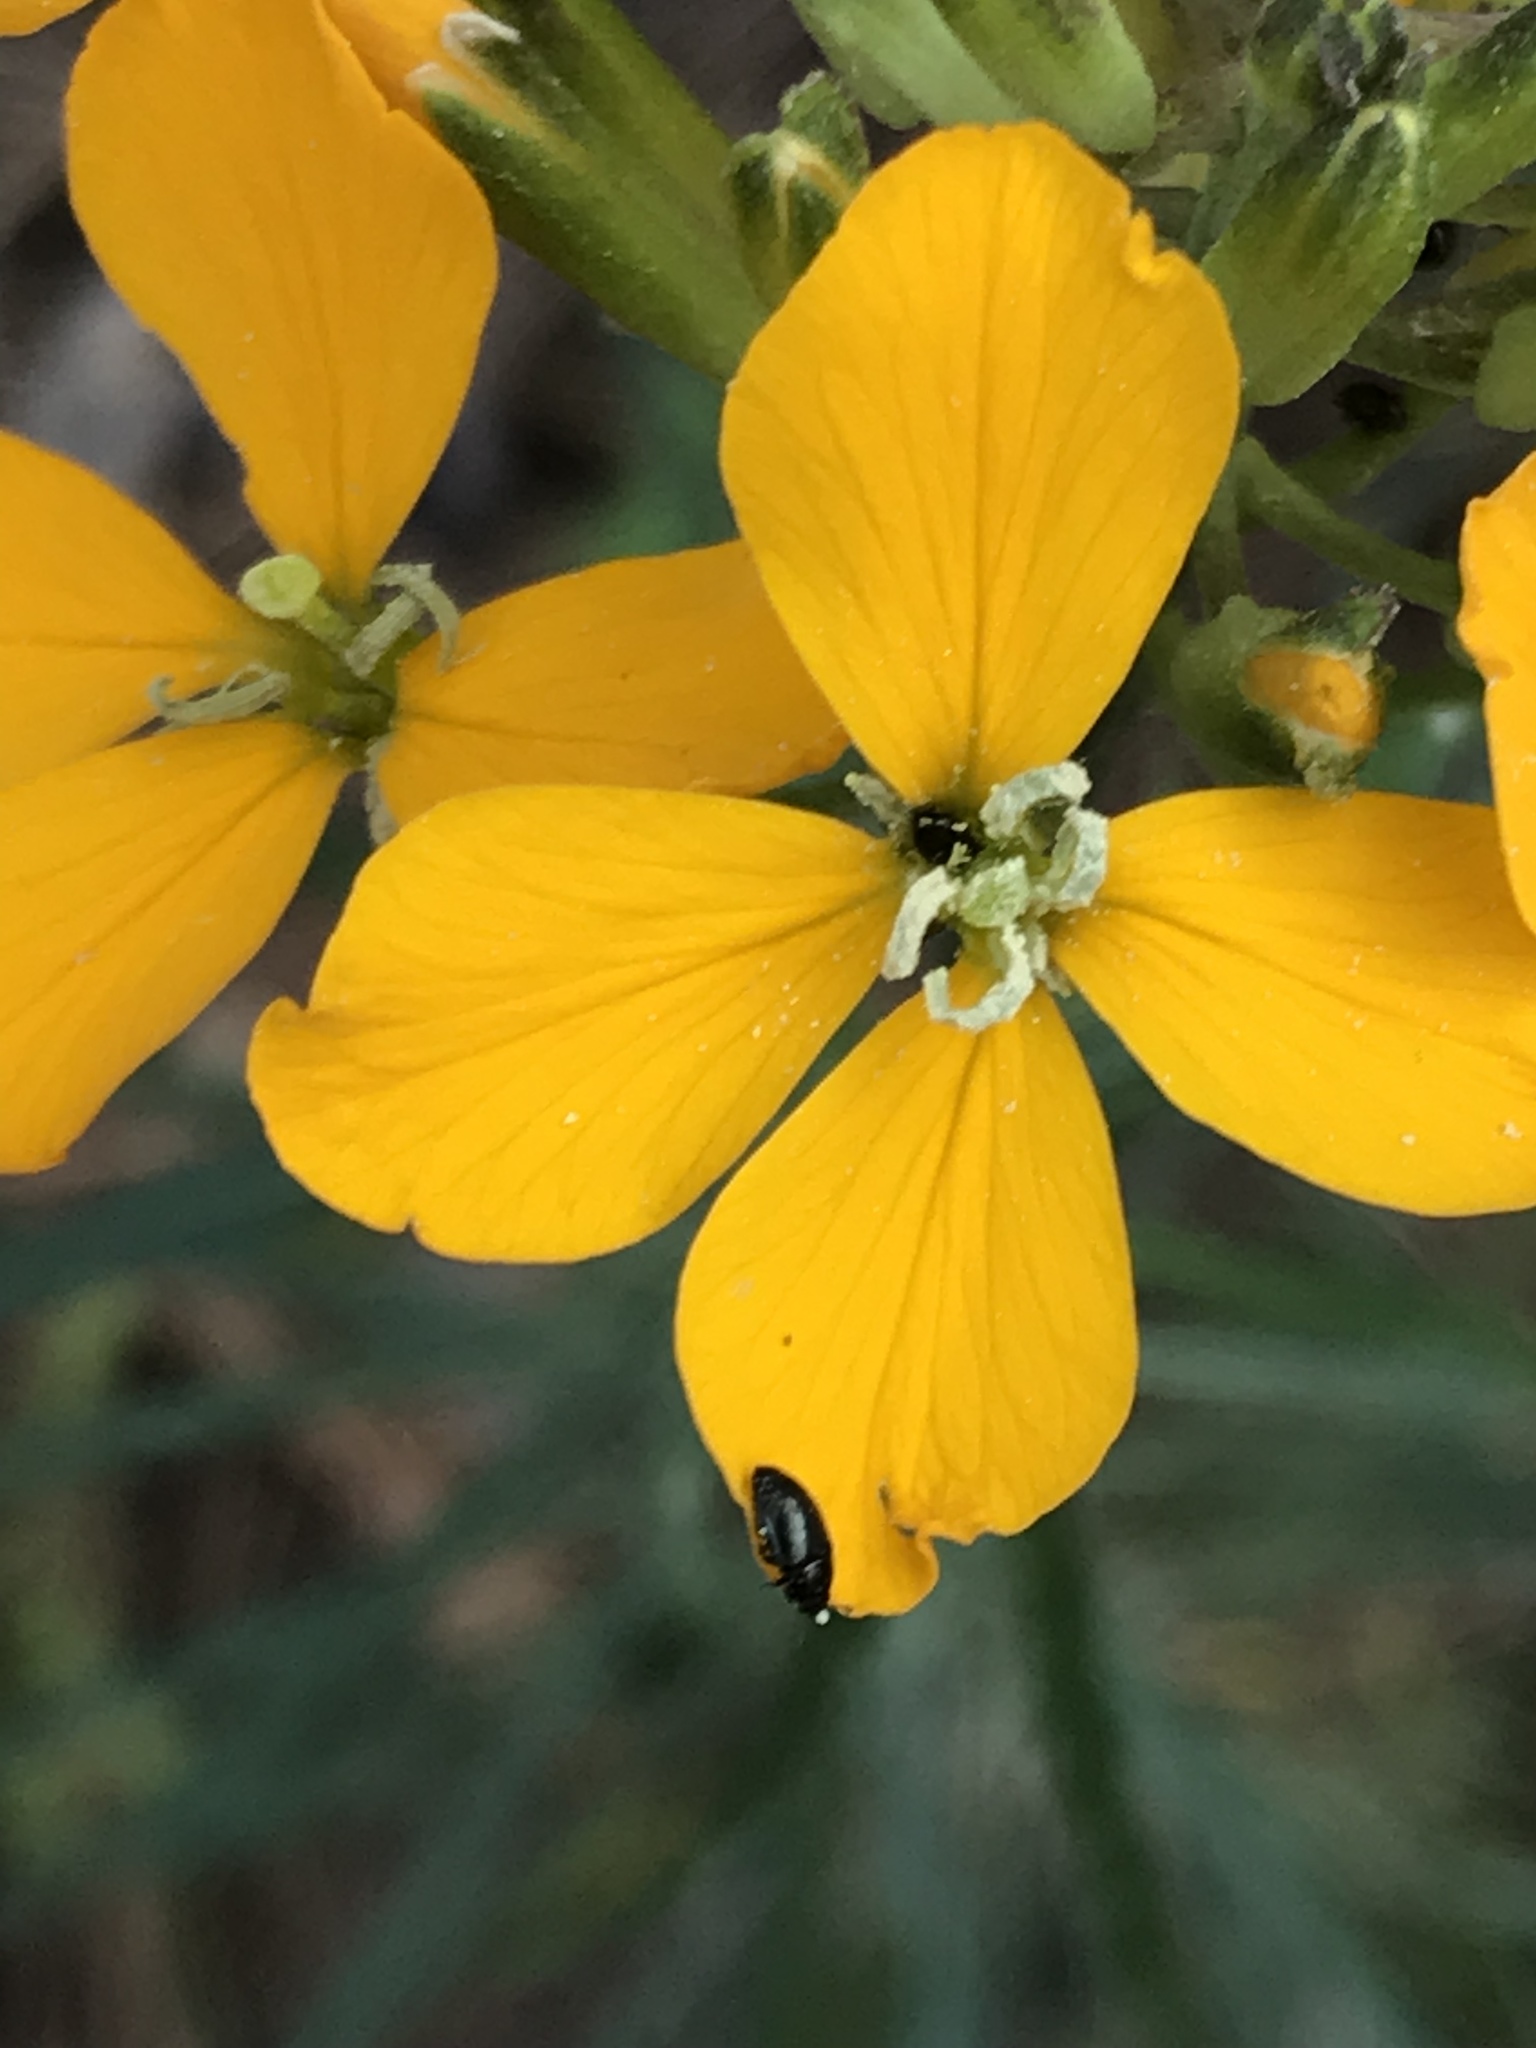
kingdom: Plantae
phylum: Tracheophyta
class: Magnoliopsida
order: Brassicales
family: Brassicaceae
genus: Erysimum
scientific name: Erysimum capitatum
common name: Western wallflower
